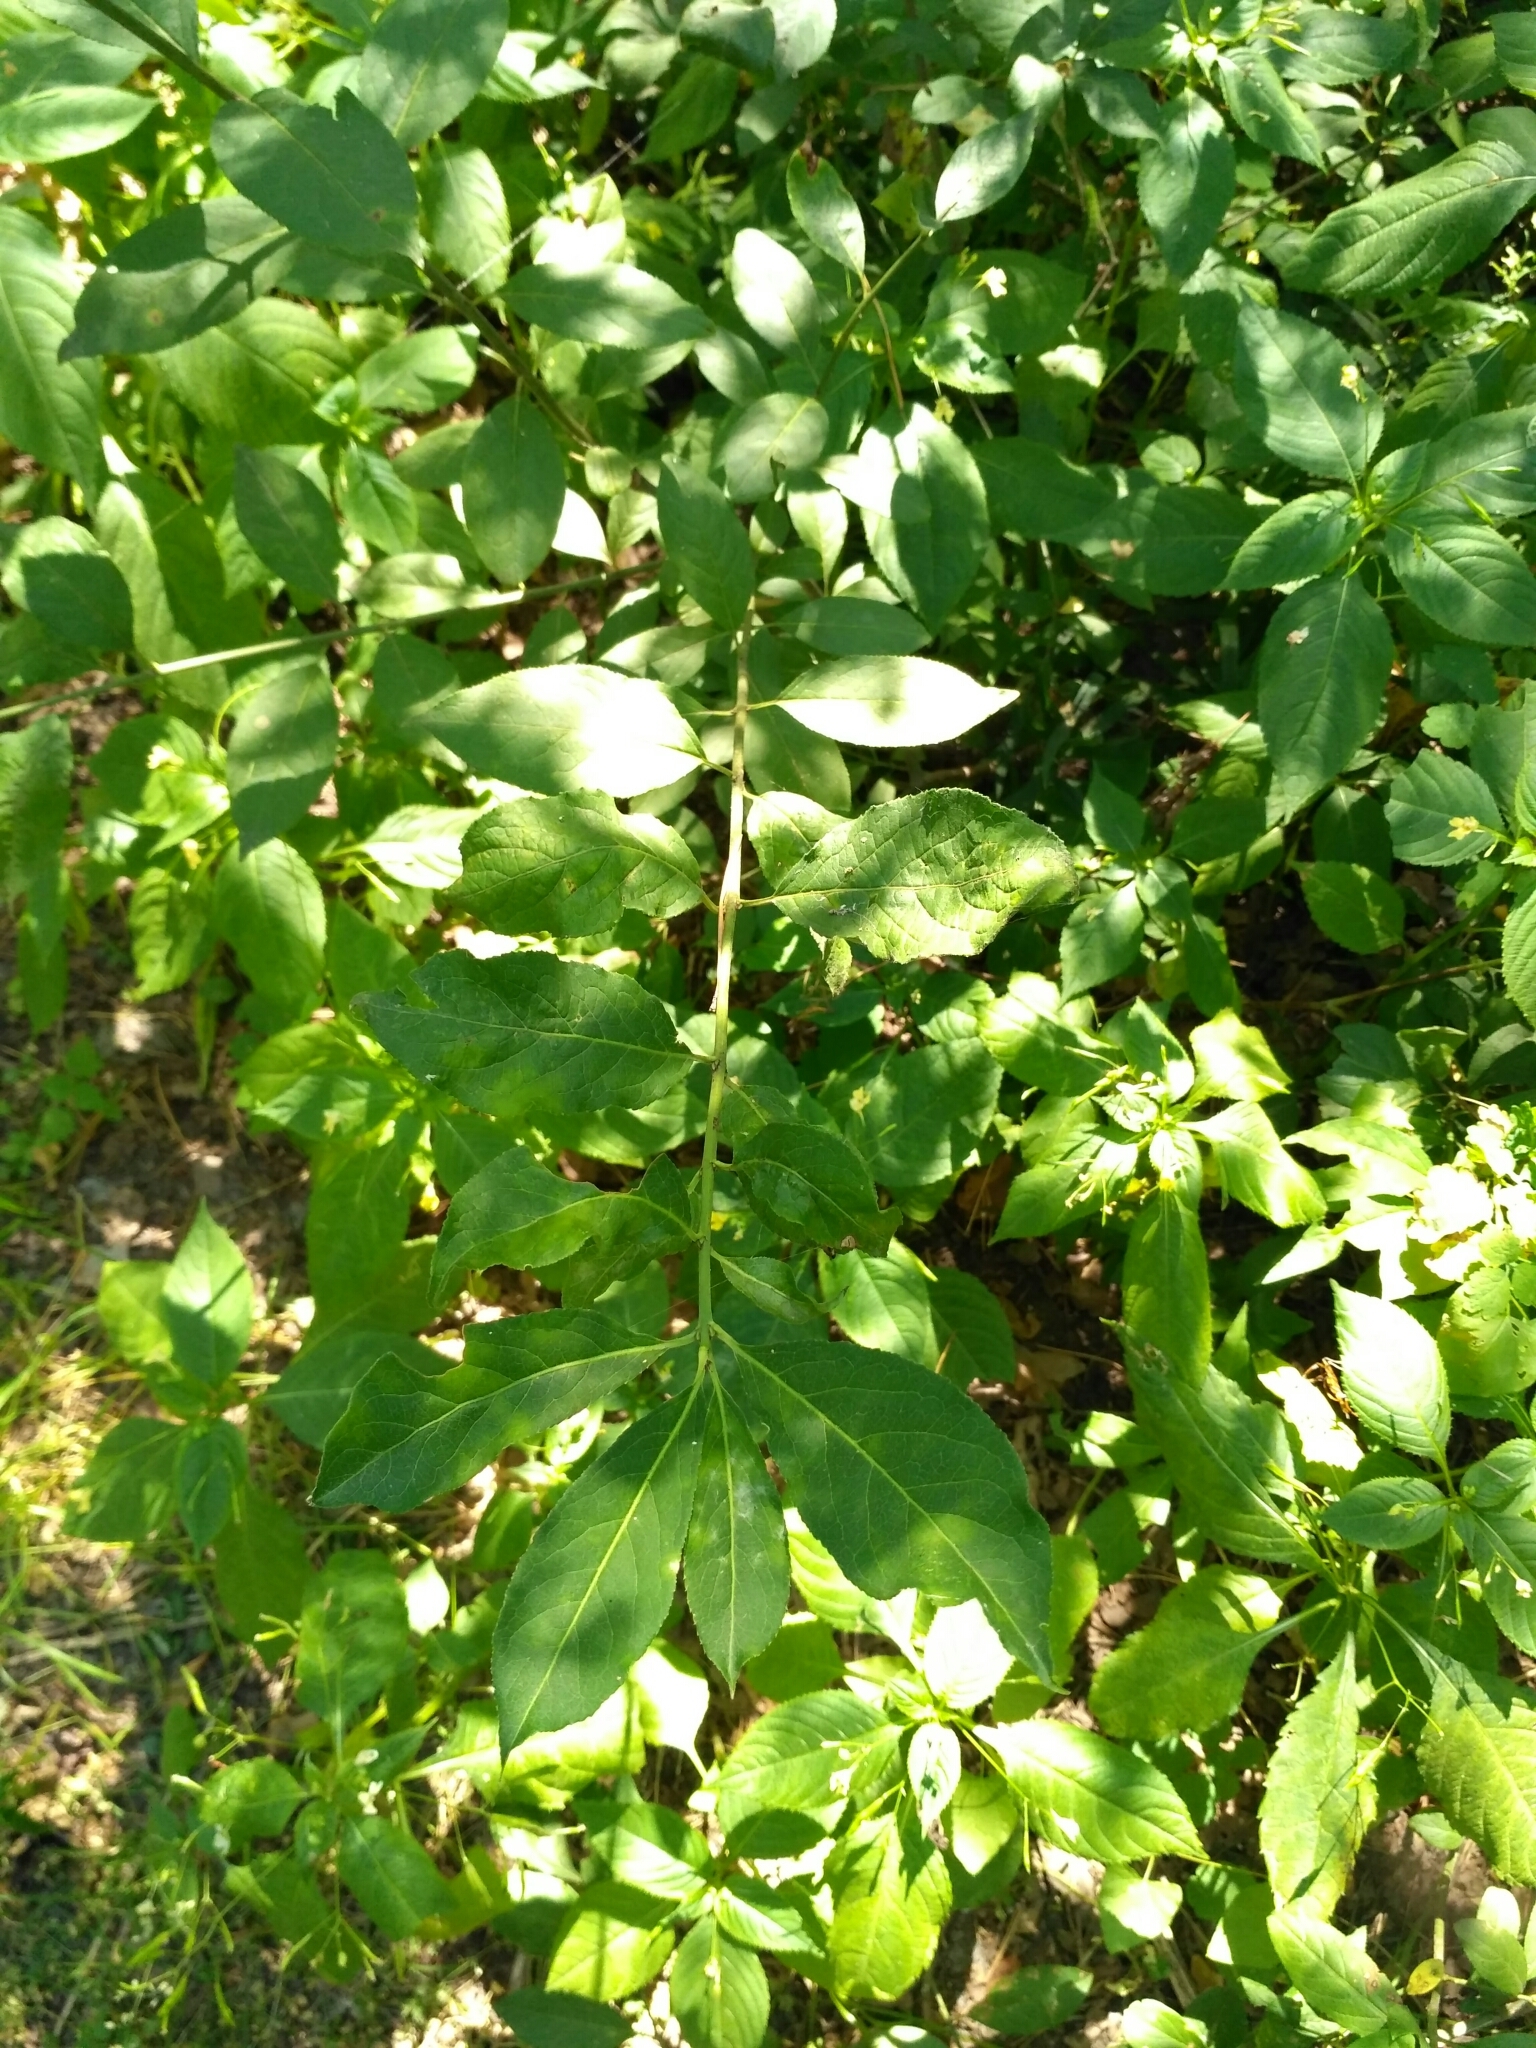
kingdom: Plantae
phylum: Tracheophyta
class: Magnoliopsida
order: Celastrales
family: Celastraceae
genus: Euonymus
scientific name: Euonymus europaeus
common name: Spindle
